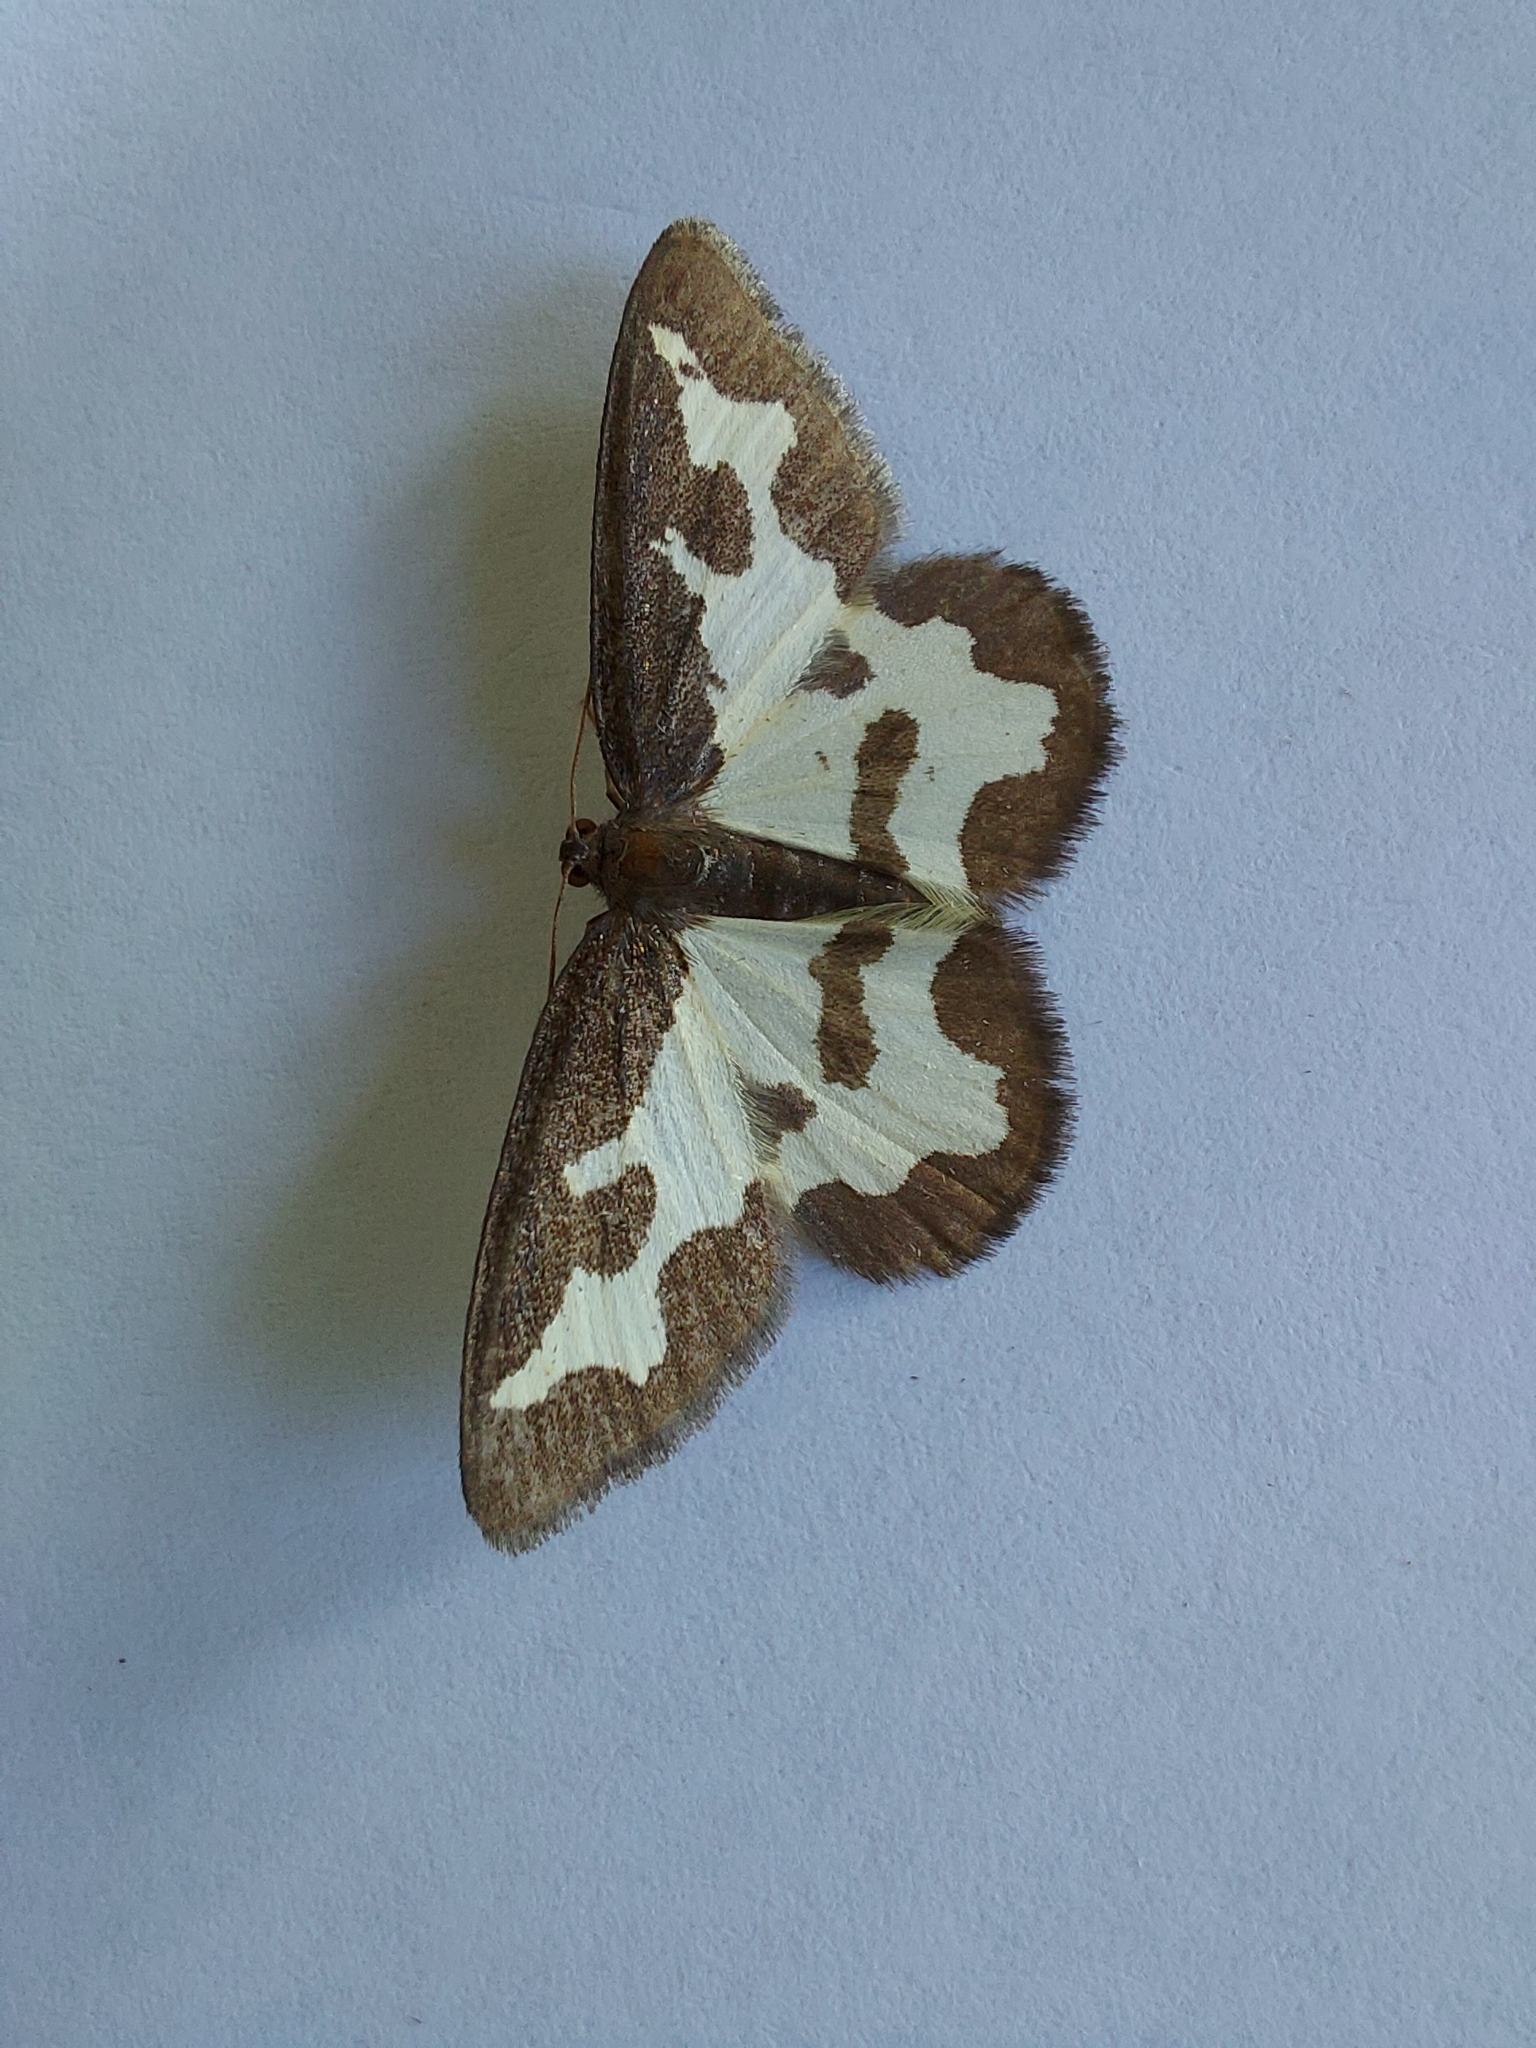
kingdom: Animalia
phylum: Arthropoda
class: Insecta
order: Lepidoptera
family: Geometridae
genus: Lomaspilis
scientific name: Lomaspilis marginata
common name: Clouded border
